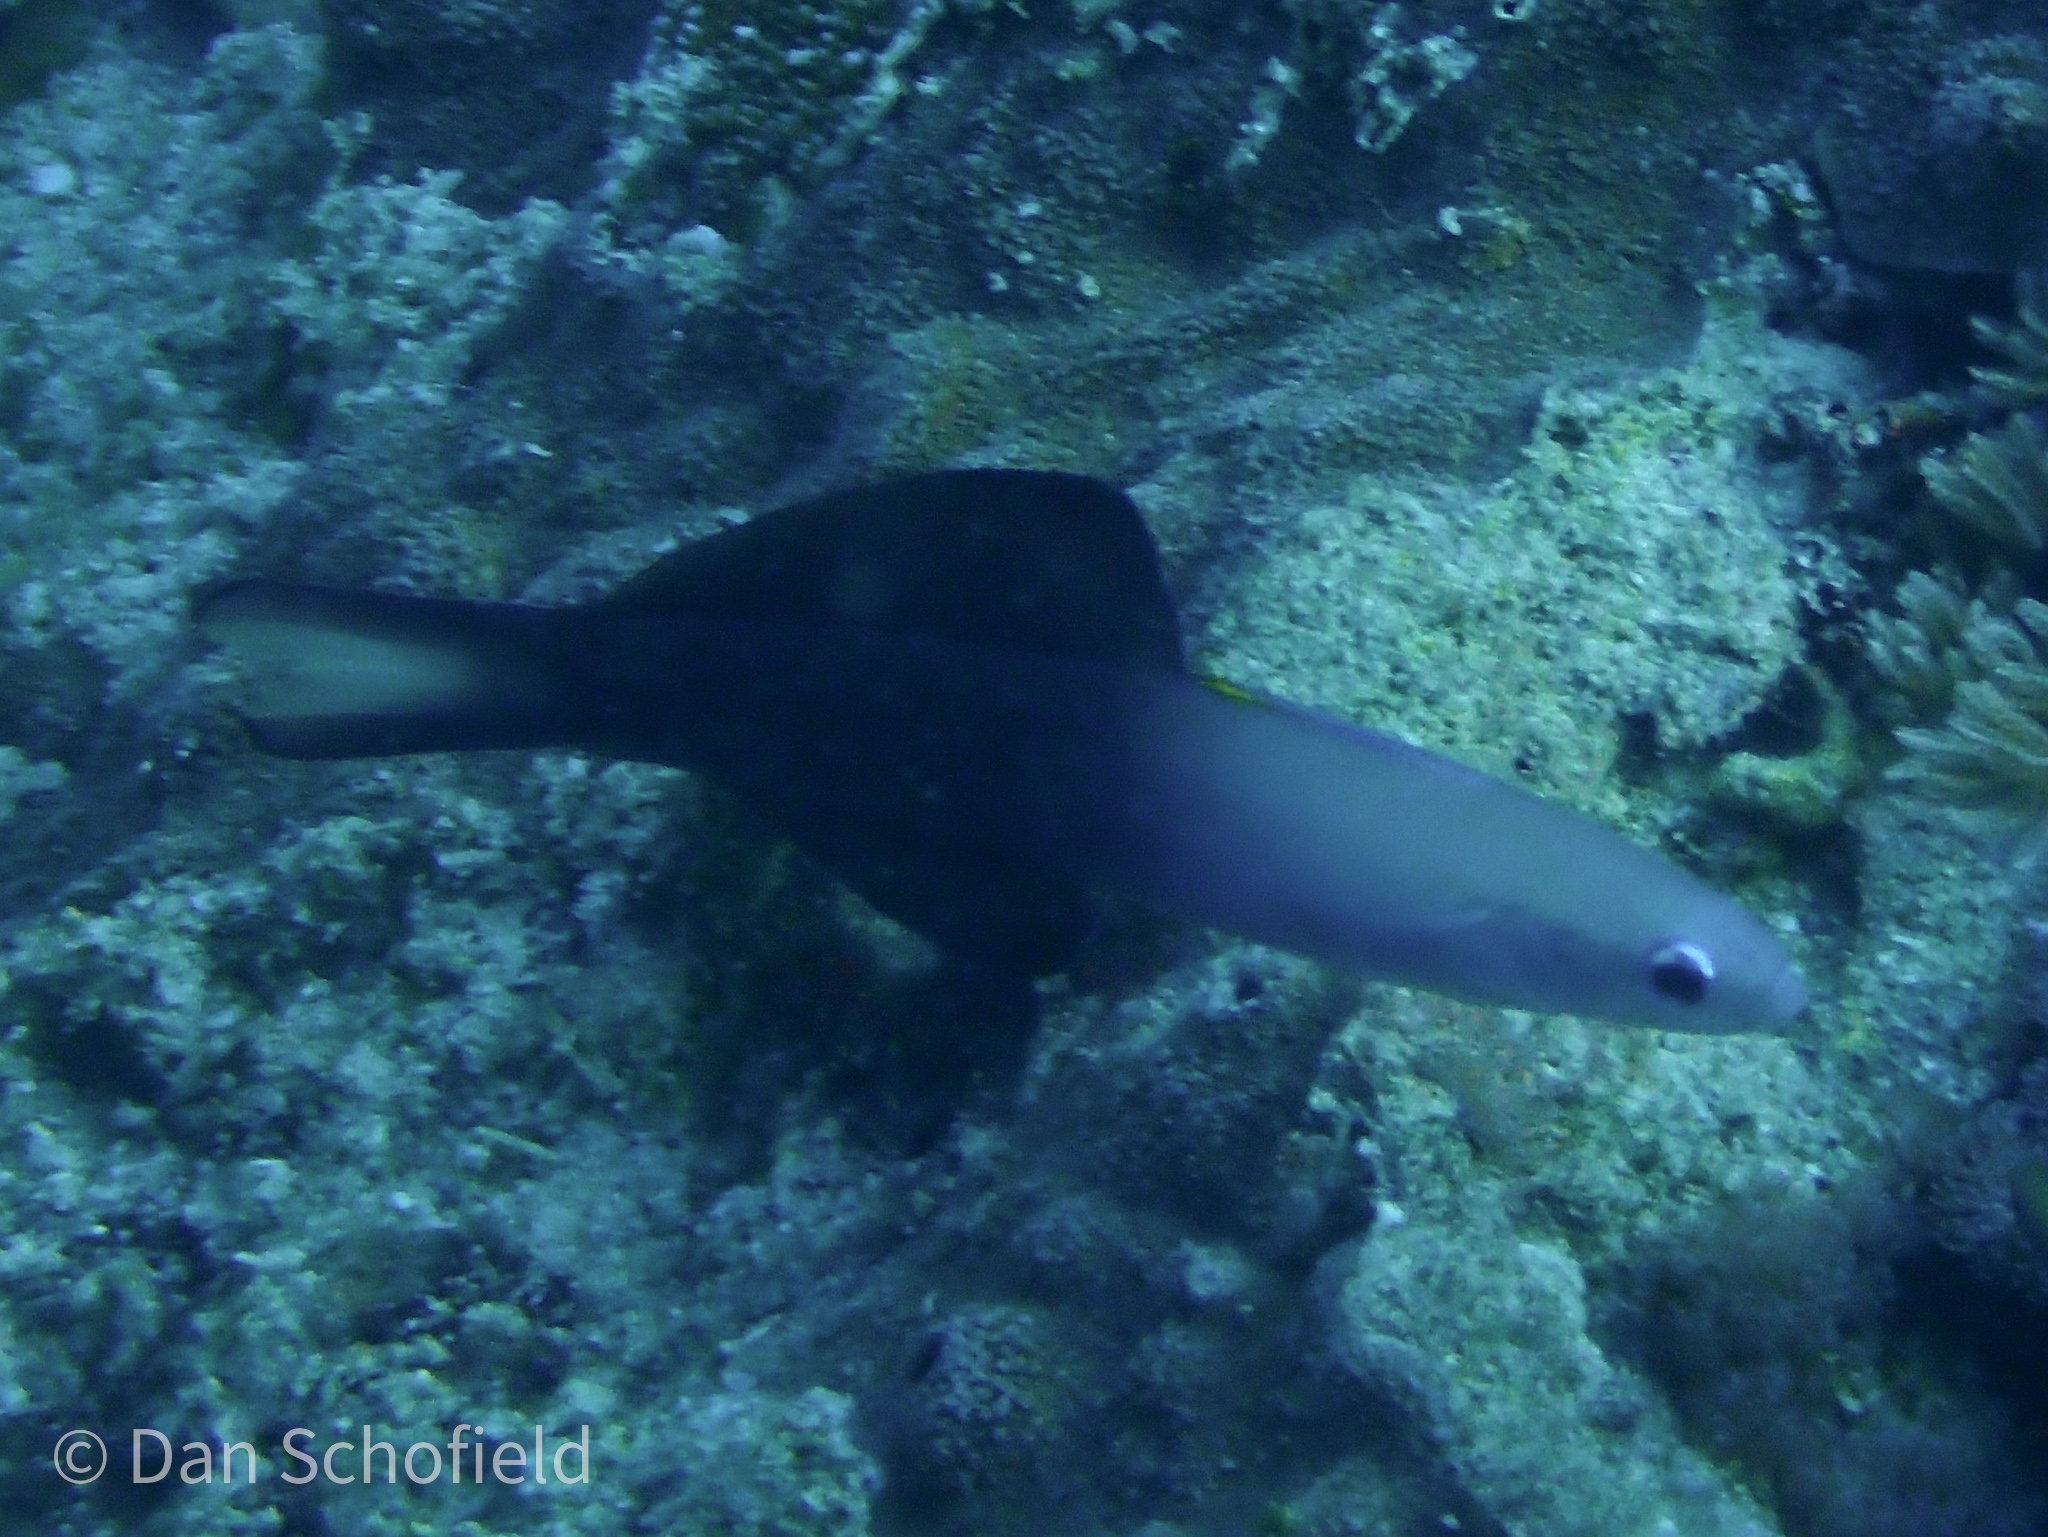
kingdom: Animalia
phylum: Chordata
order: Perciformes
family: Microdesmidae
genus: Ptereleotris
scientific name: Ptereleotris evides
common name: Blackfin dartfish
